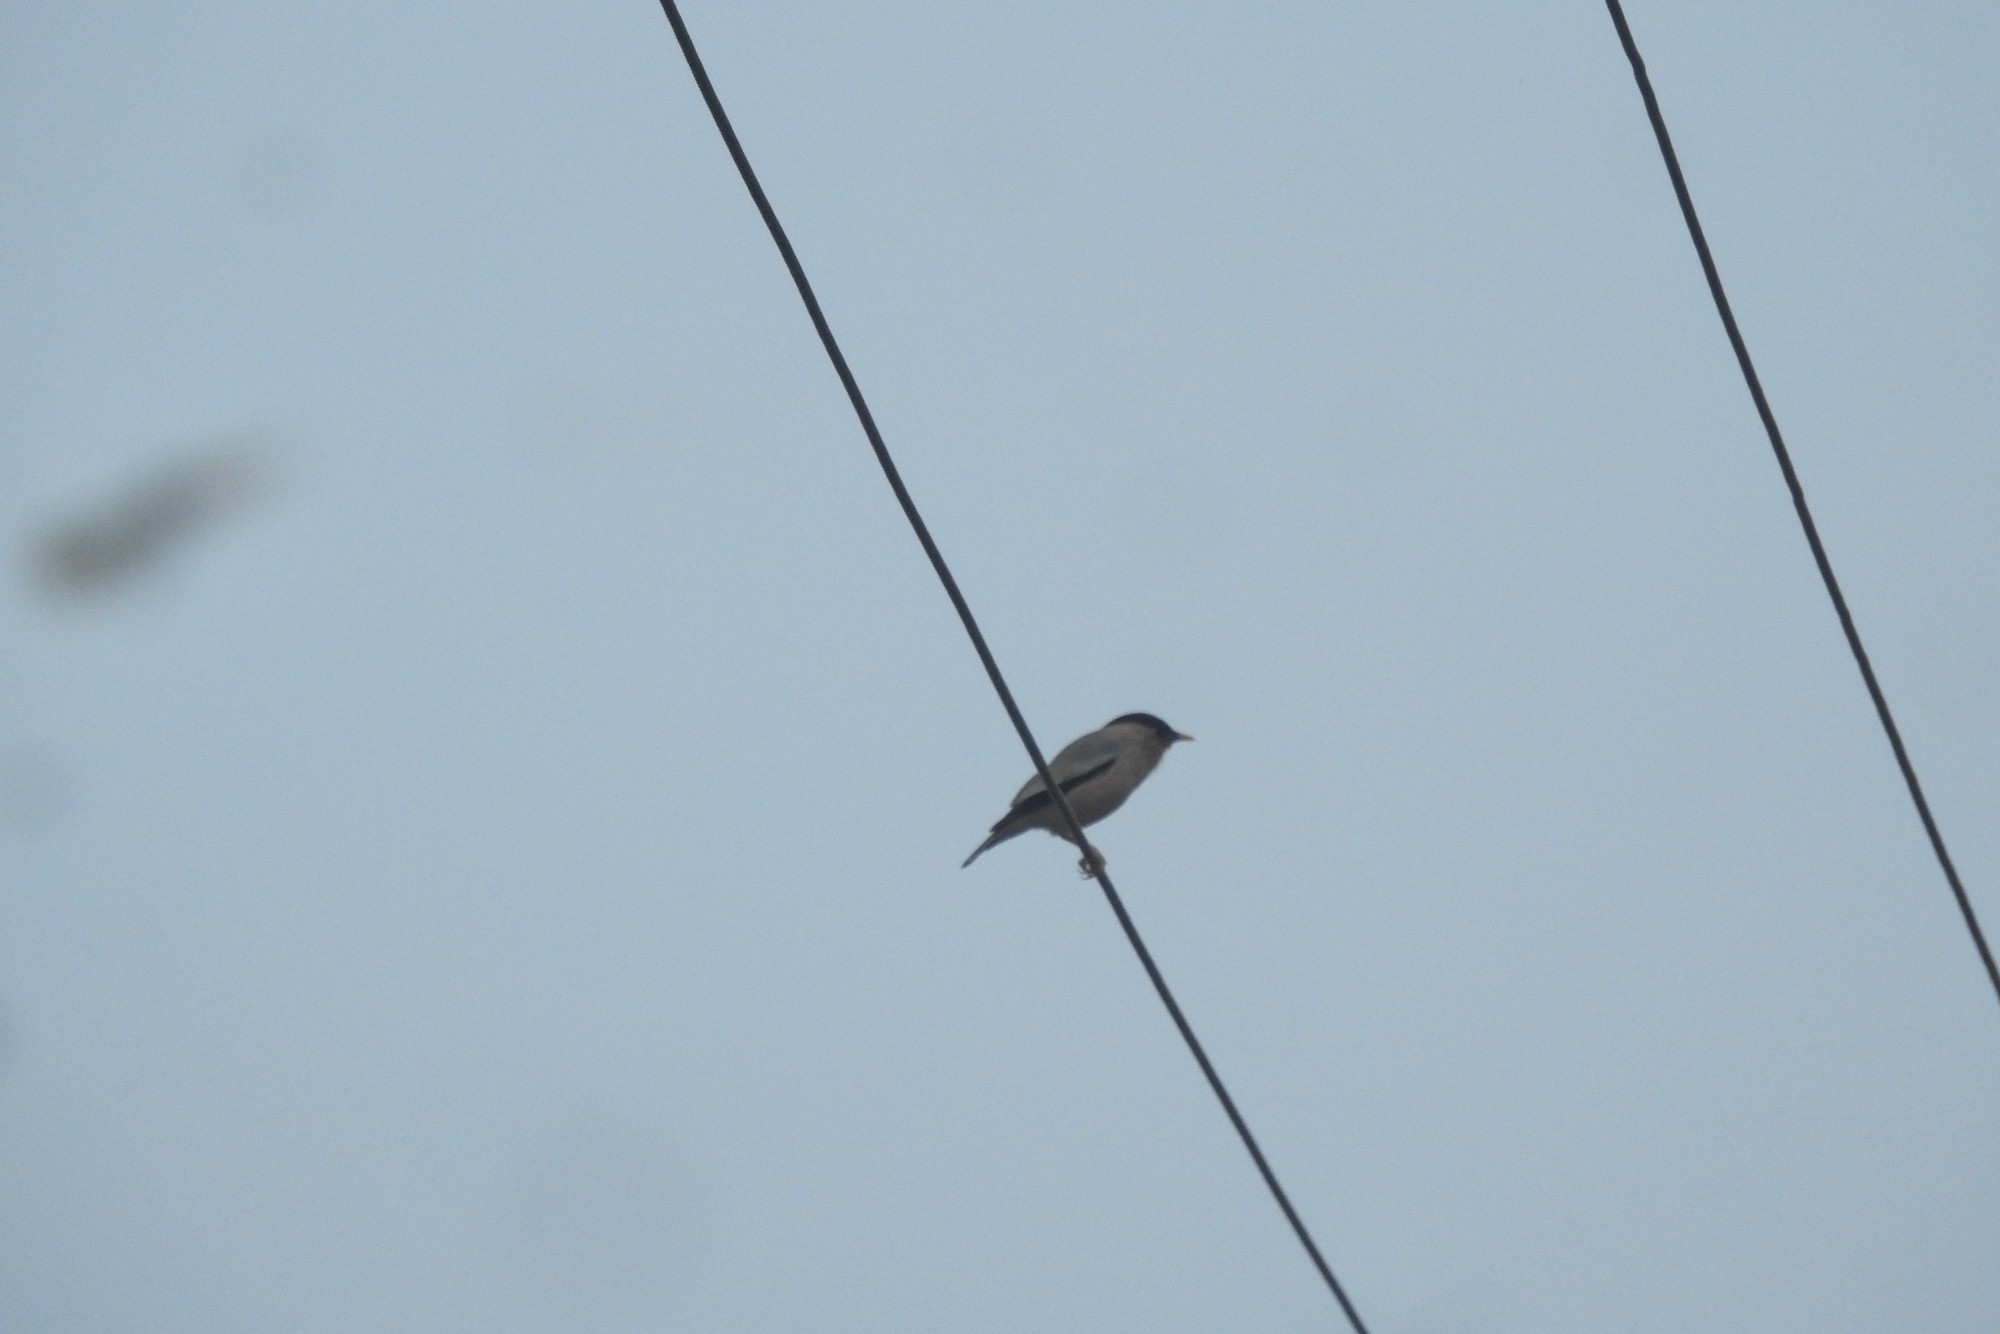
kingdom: Animalia
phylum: Chordata
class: Aves
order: Passeriformes
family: Sturnidae
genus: Sturnia
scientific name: Sturnia pagodarum
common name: Brahminy starling
